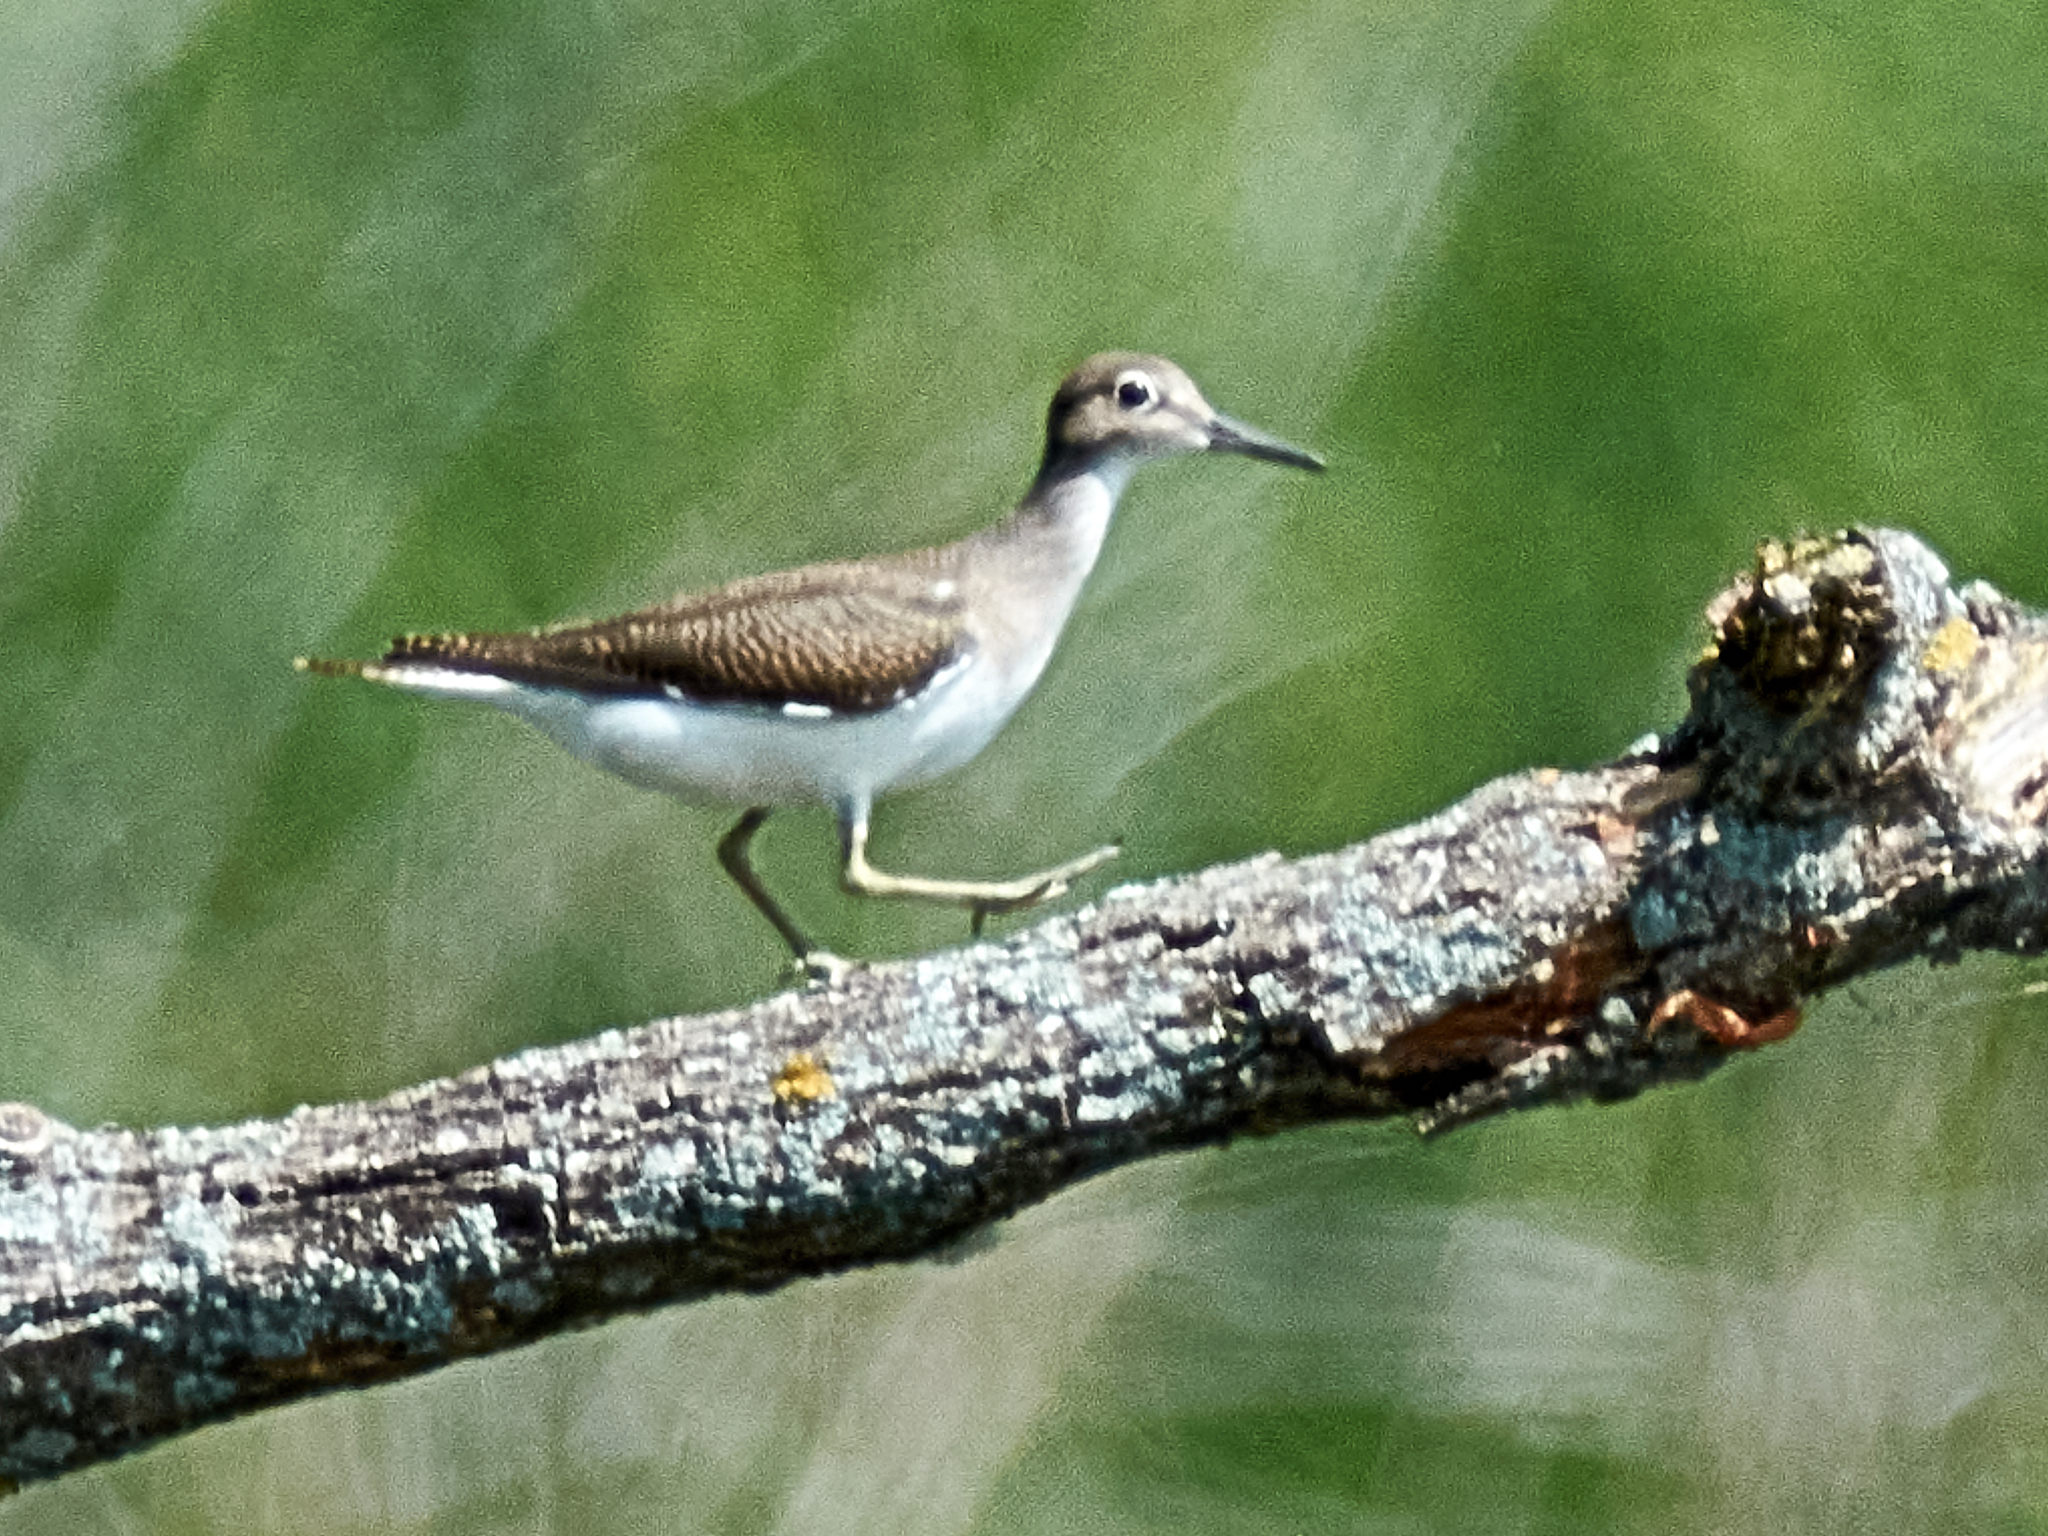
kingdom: Animalia
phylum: Chordata
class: Aves
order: Charadriiformes
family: Scolopacidae
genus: Actitis
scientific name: Actitis hypoleucos
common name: Common sandpiper
